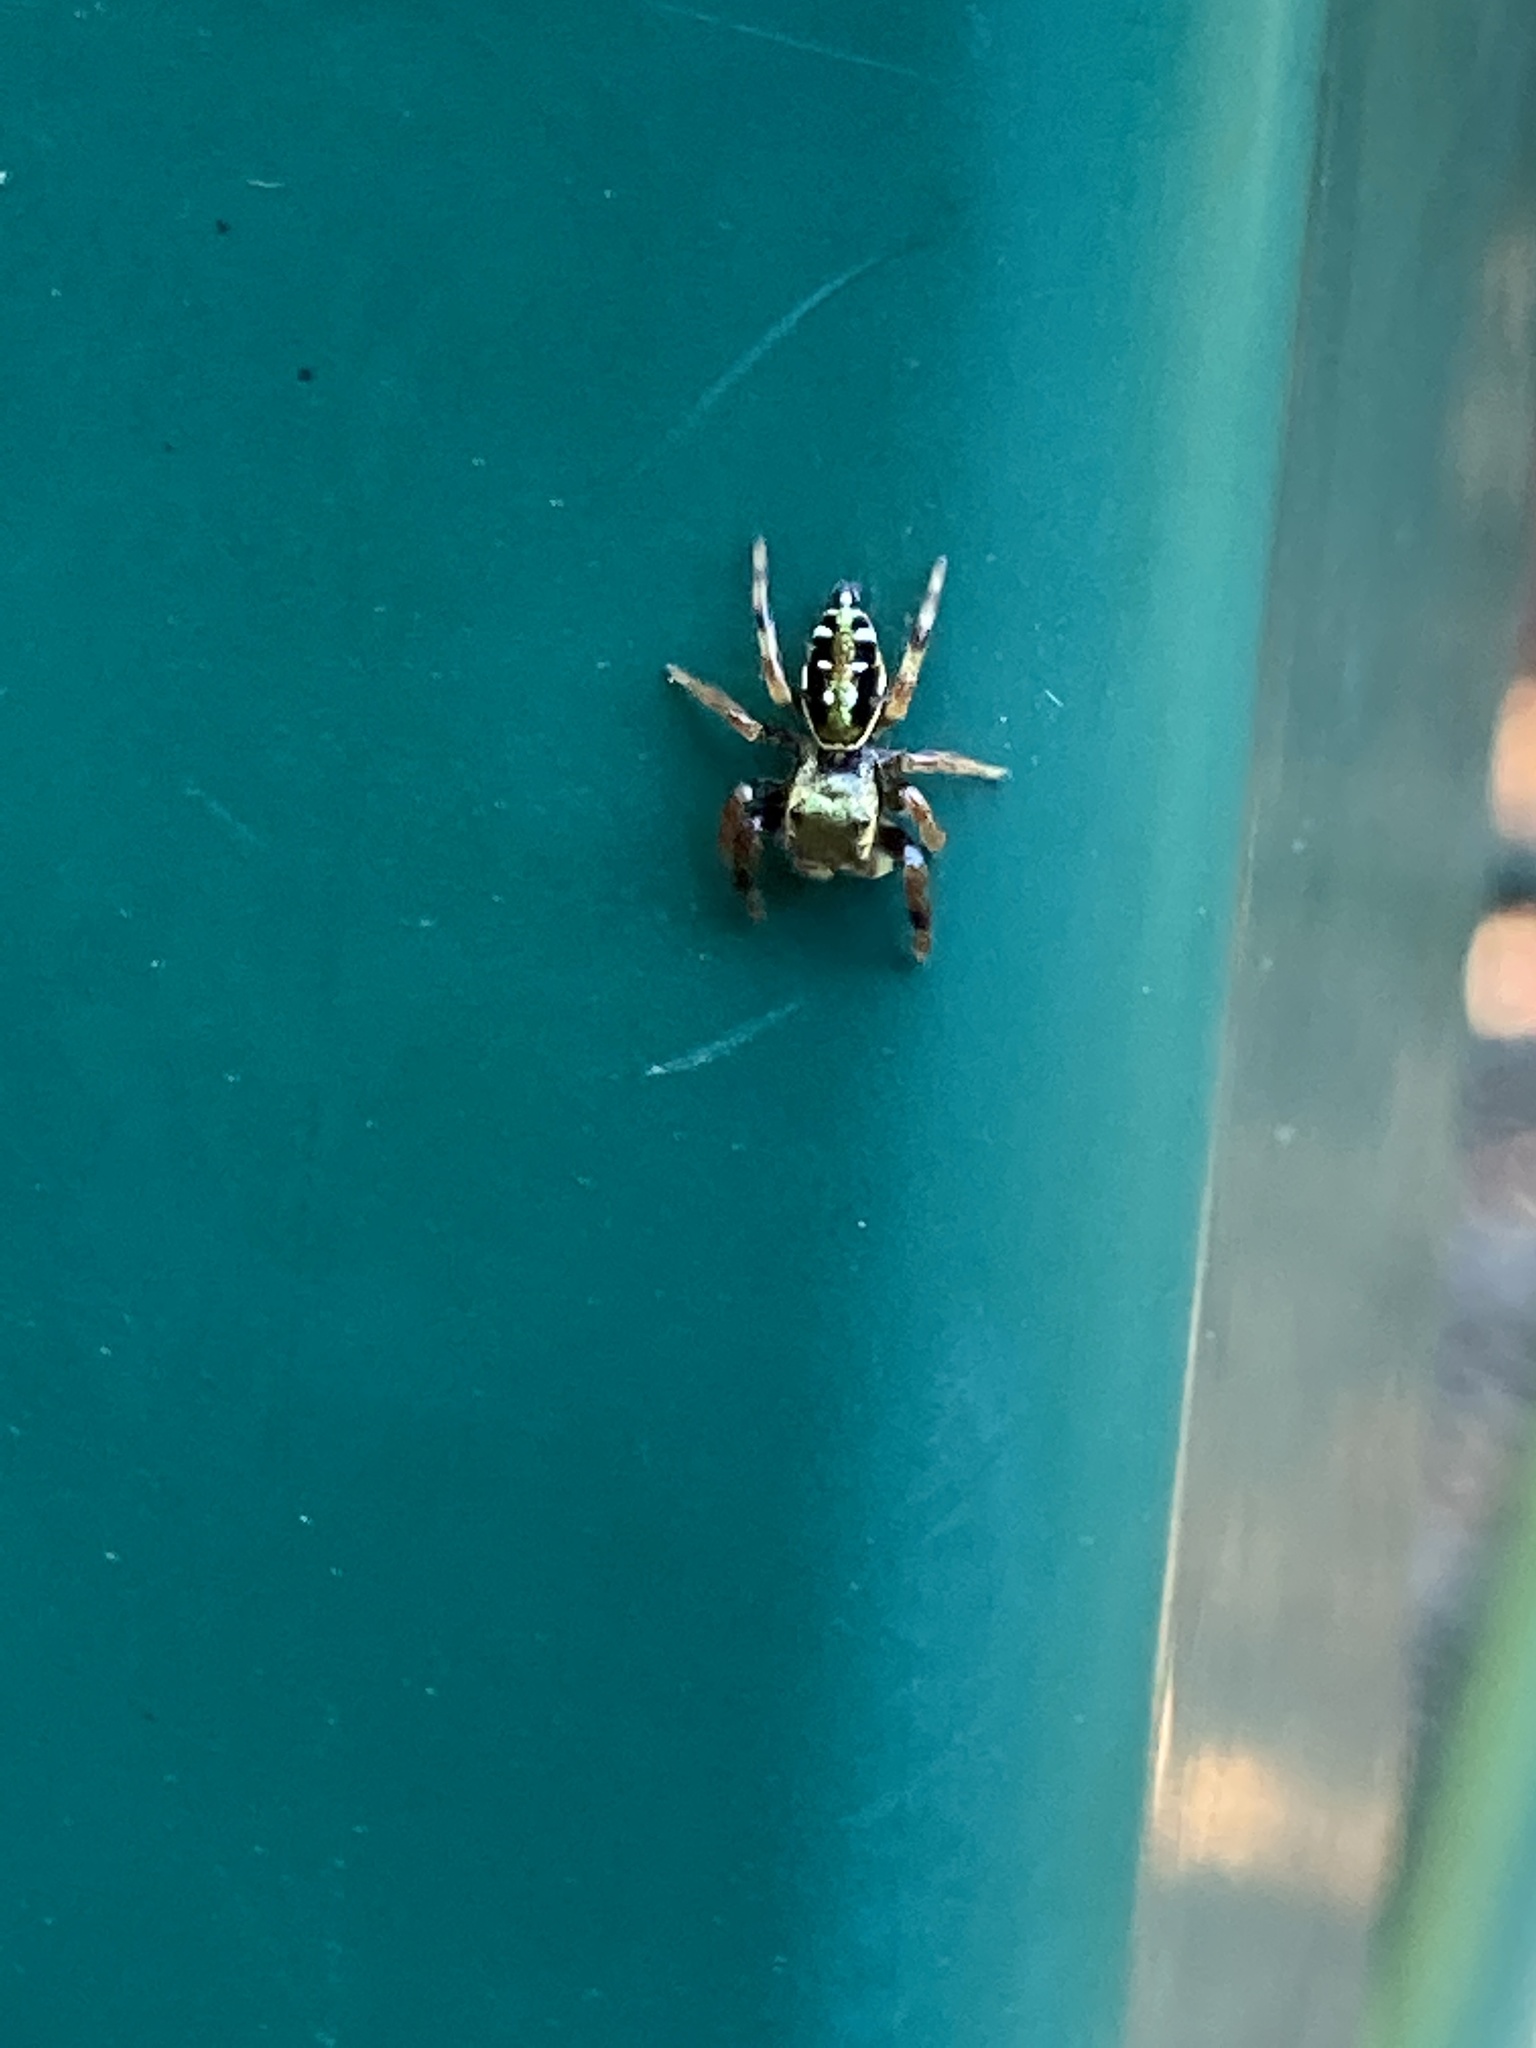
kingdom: Animalia
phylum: Arthropoda
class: Arachnida
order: Araneae
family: Salticidae
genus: Paraphidippus
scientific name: Paraphidippus aurantius
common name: Jumping spiders
